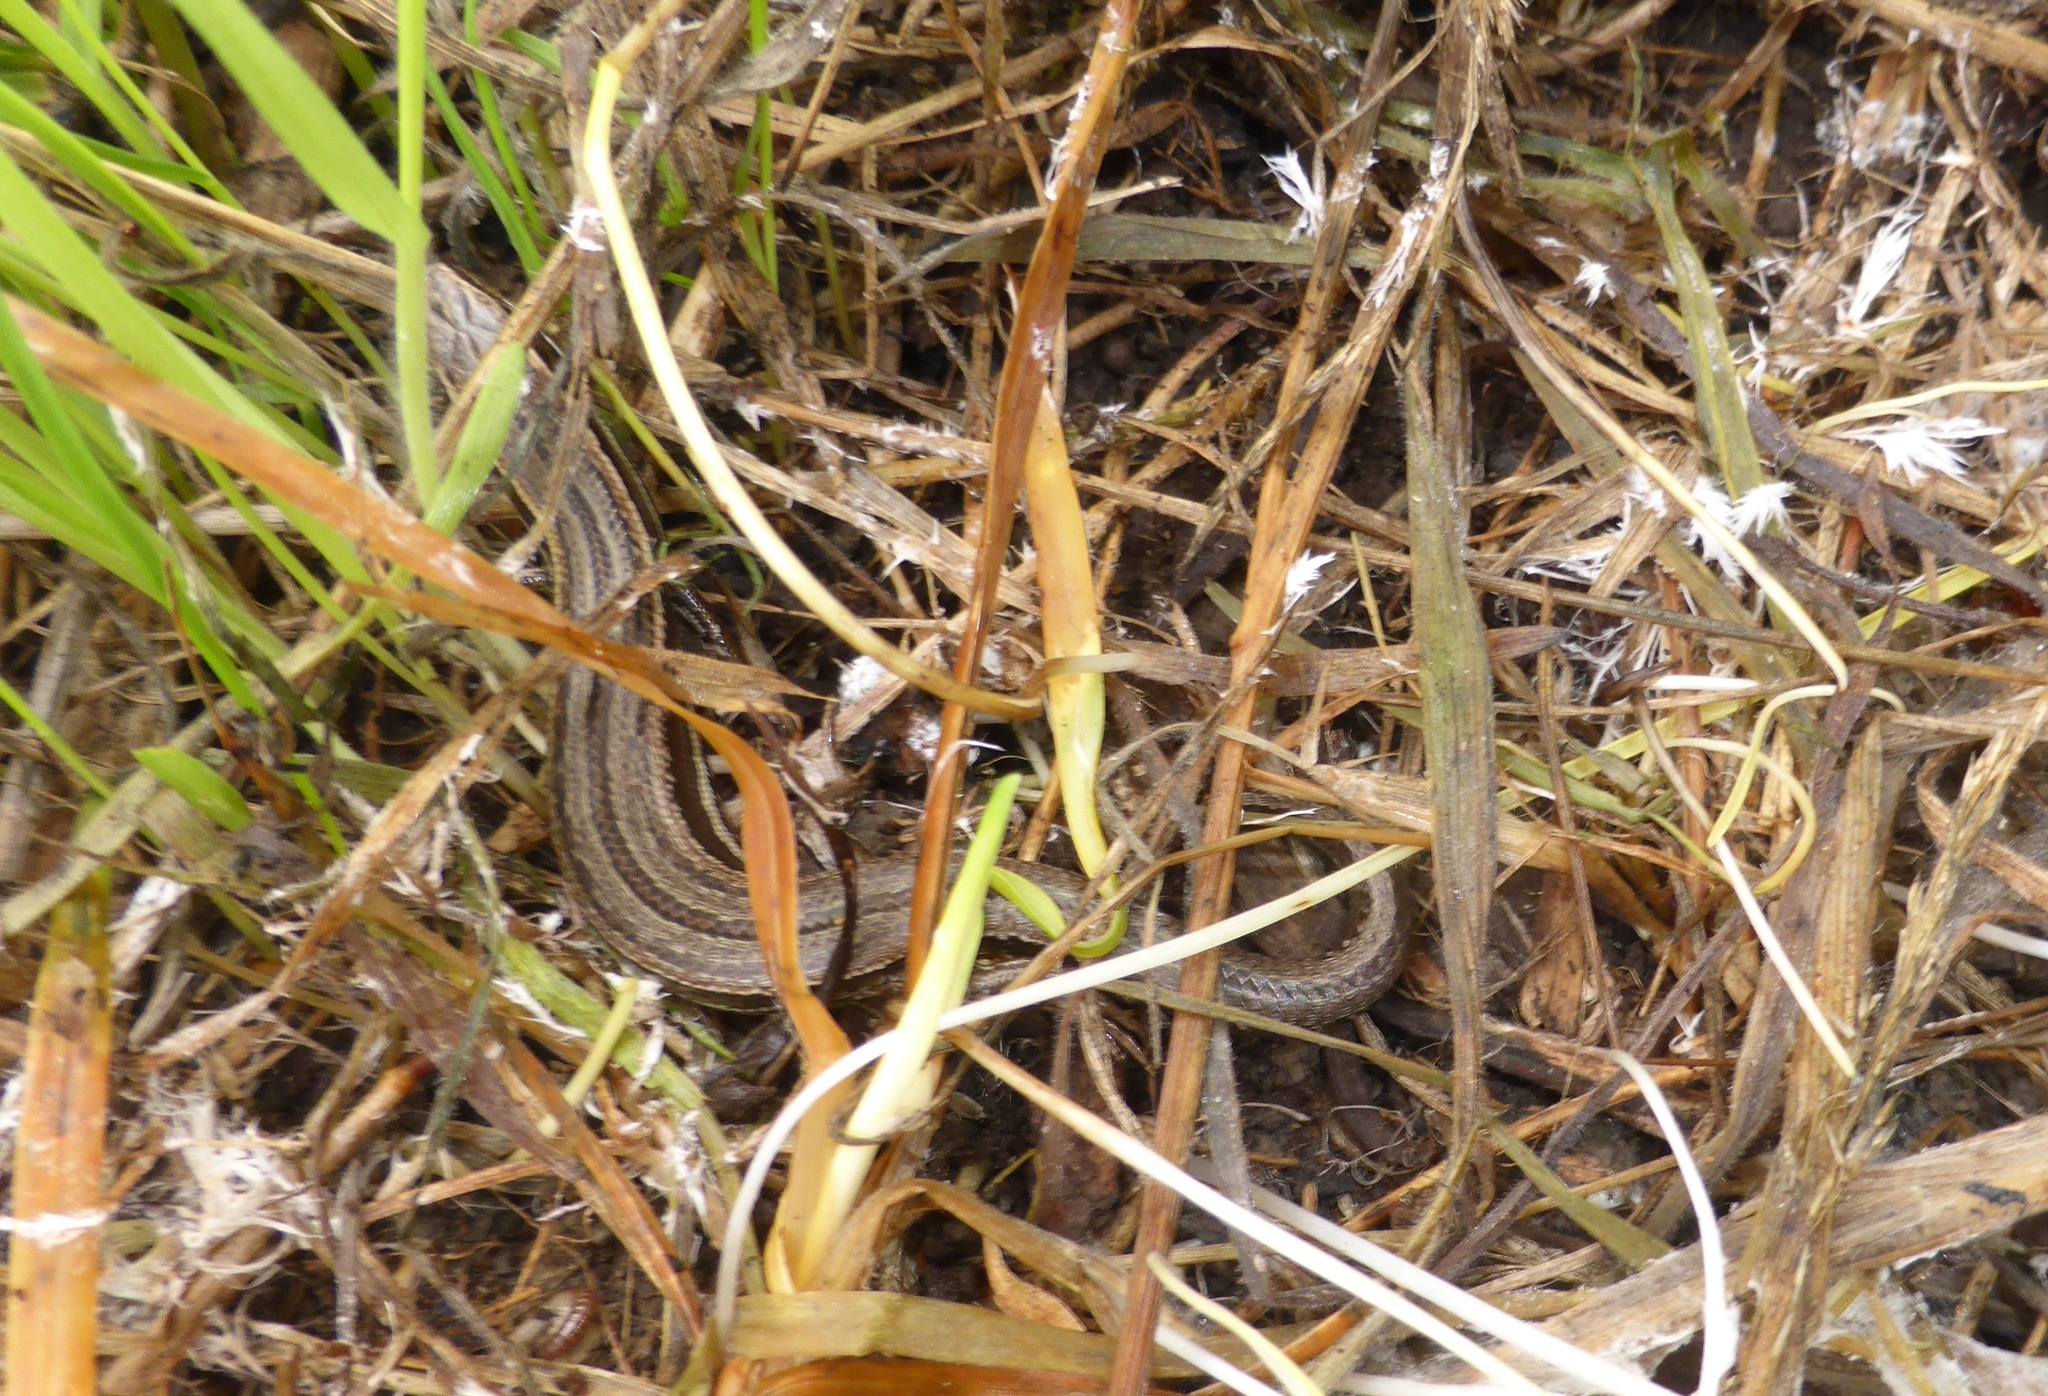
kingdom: Animalia
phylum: Chordata
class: Squamata
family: Scincidae
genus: Oligosoma
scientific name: Oligosoma polychroma
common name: Common new zealand skink
